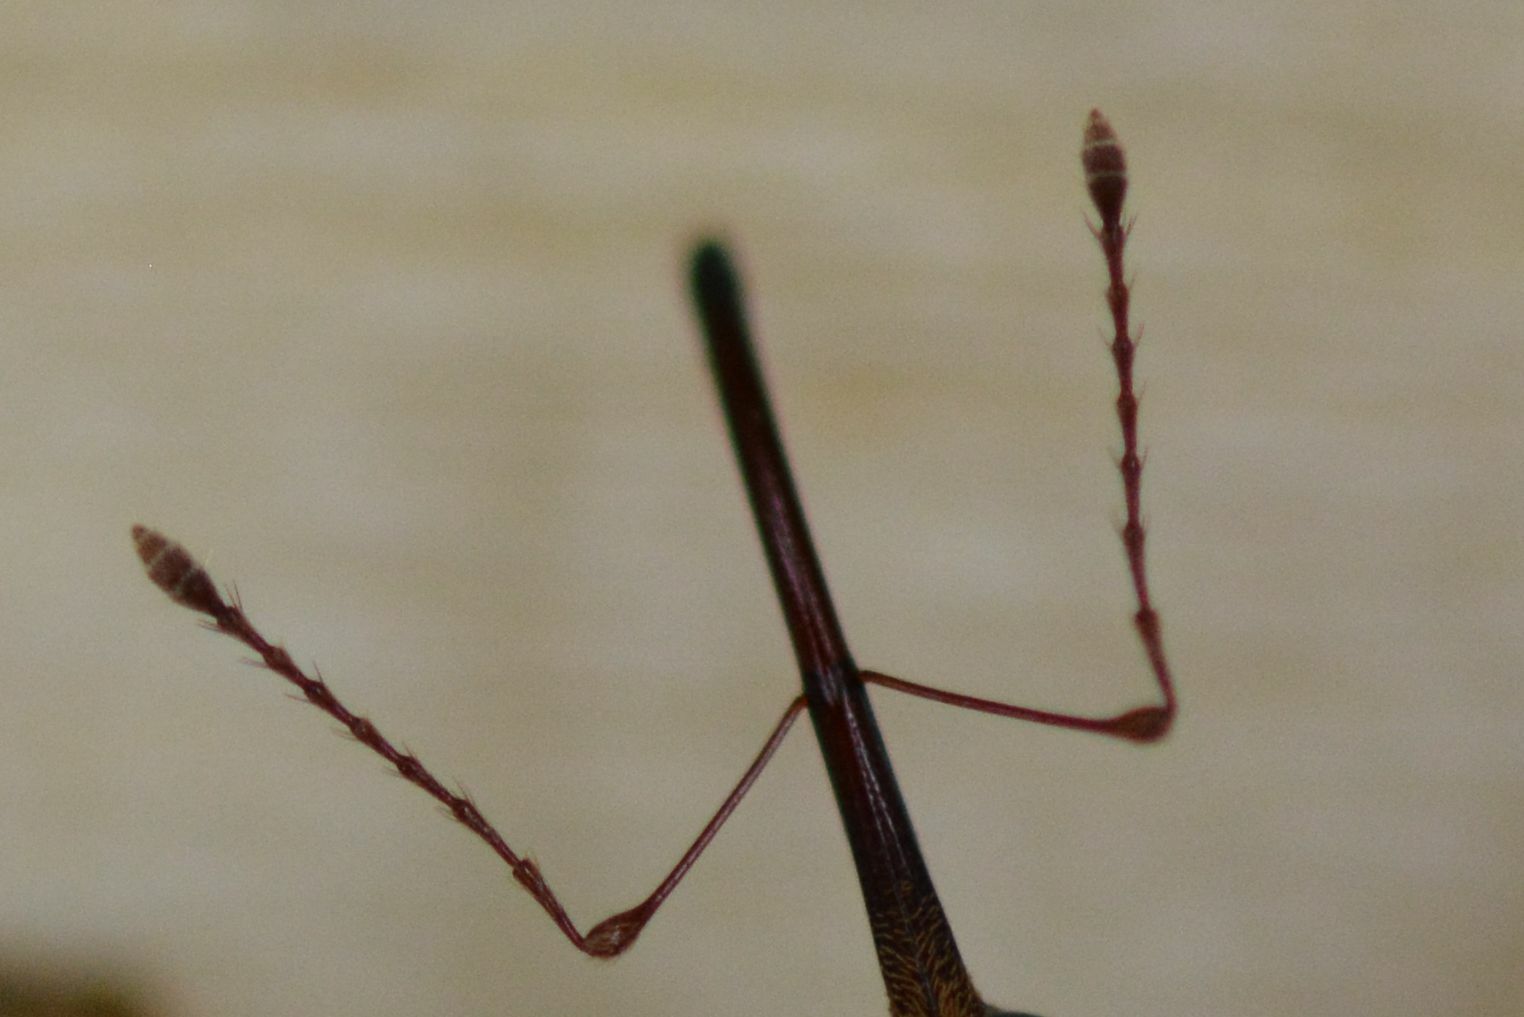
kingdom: Animalia
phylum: Arthropoda
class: Insecta
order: Coleoptera
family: Curculionidae
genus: Curculio
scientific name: Curculio venosus
